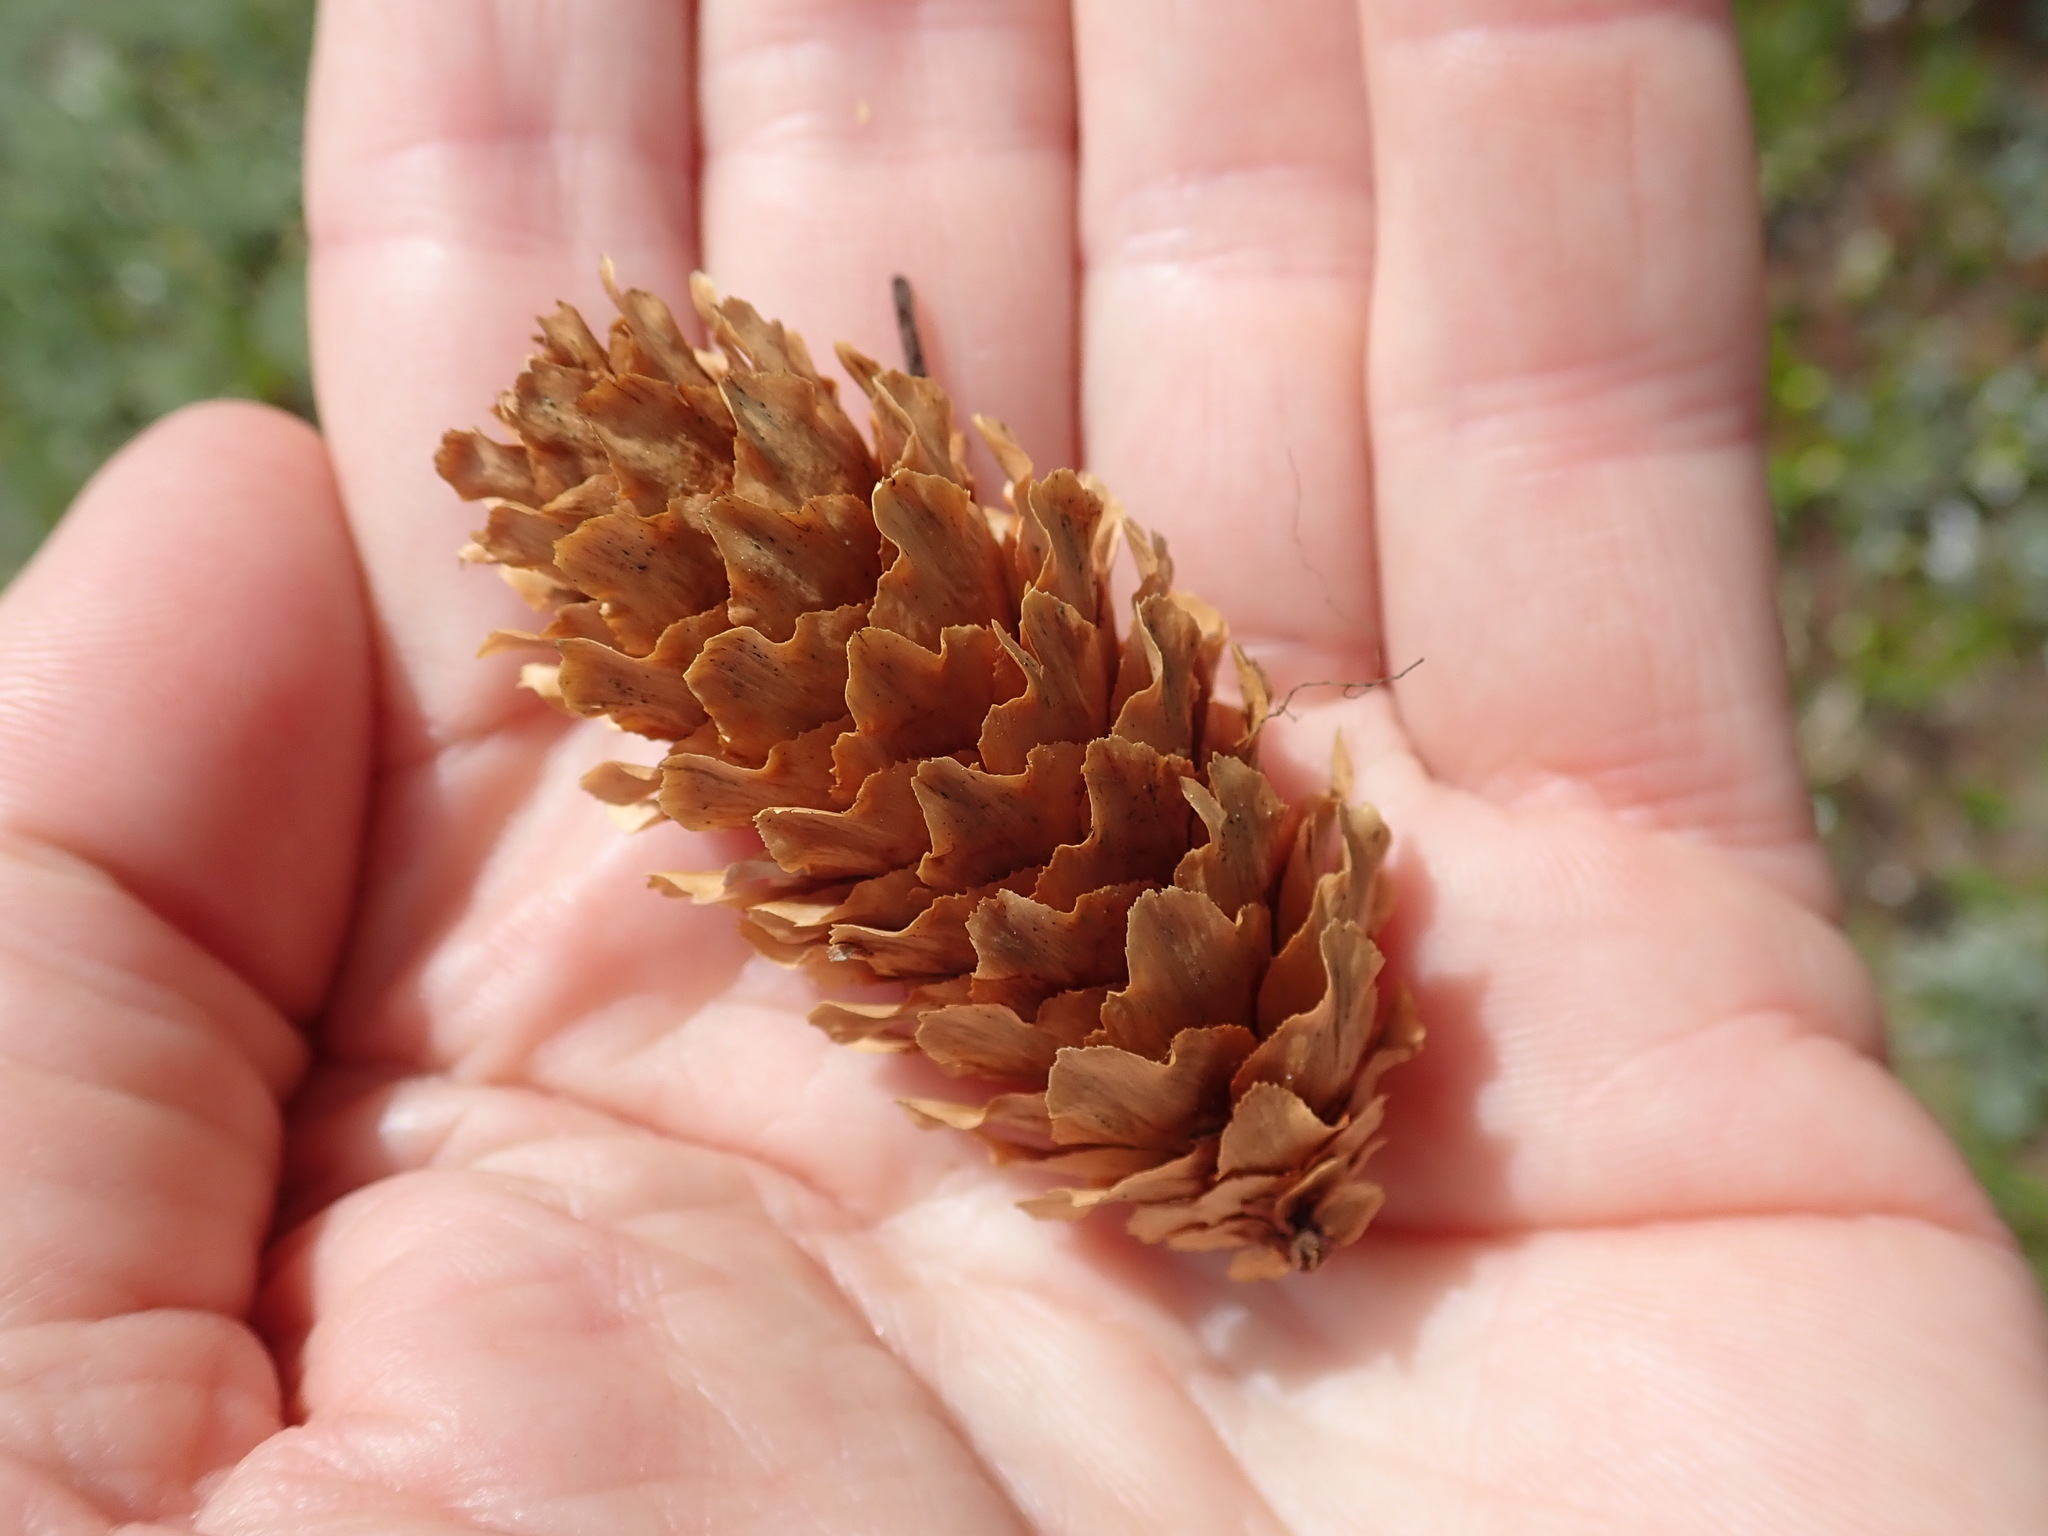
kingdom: Plantae
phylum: Tracheophyta
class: Pinopsida
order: Pinales
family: Pinaceae
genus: Picea
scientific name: Picea engelmannii
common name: Engelmann spruce
